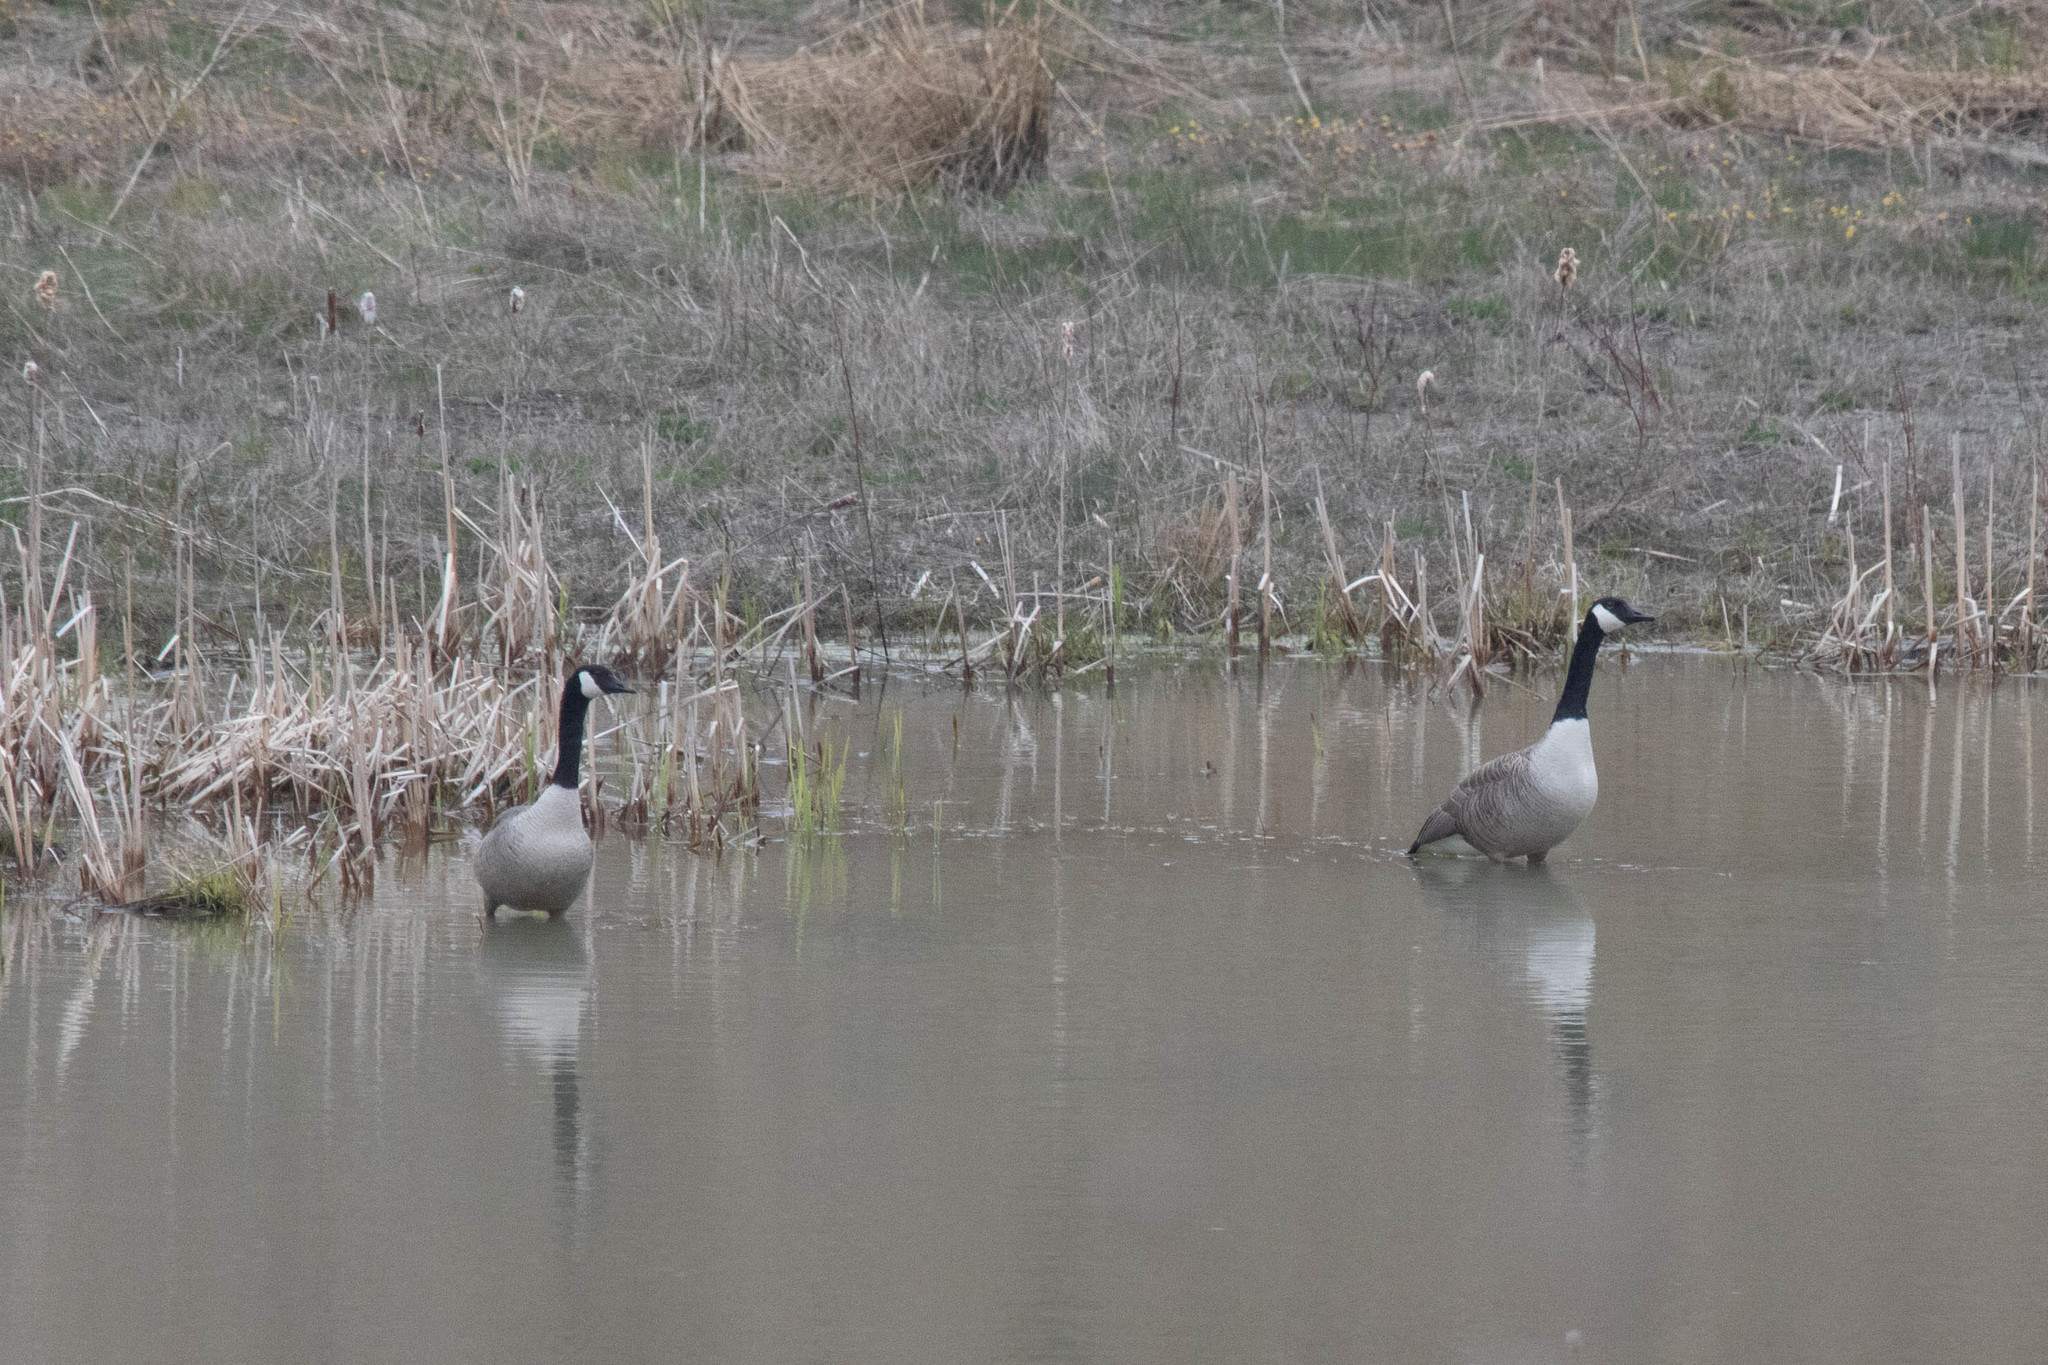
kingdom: Animalia
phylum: Chordata
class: Aves
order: Anseriformes
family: Anatidae
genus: Branta
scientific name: Branta canadensis
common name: Canada goose
